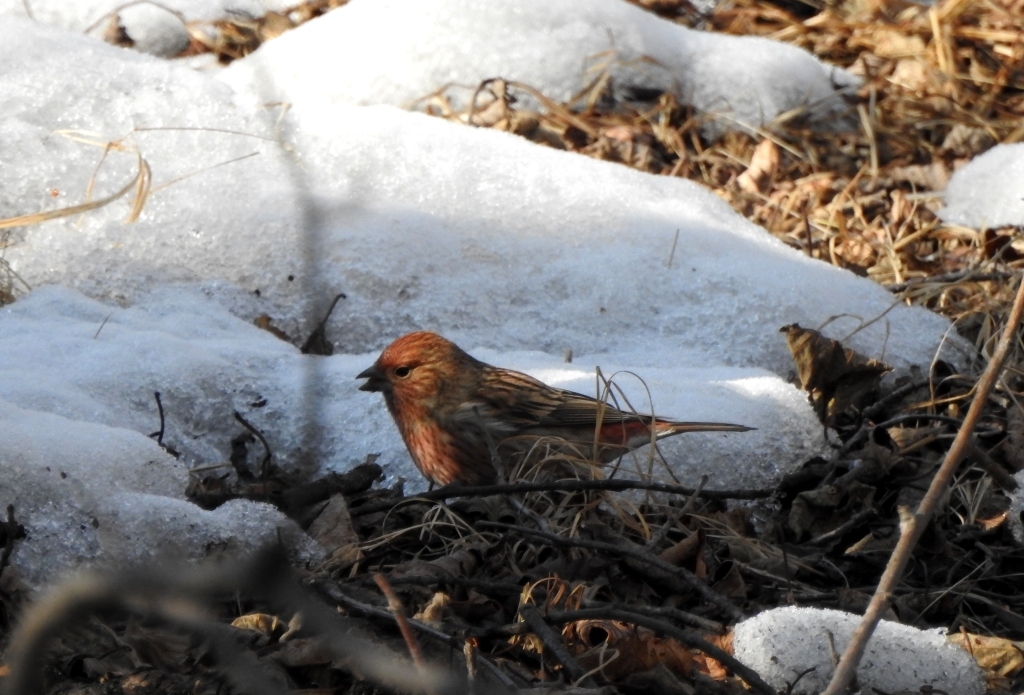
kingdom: Animalia
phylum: Chordata
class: Aves
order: Passeriformes
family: Fringillidae
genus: Carpodacus
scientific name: Carpodacus roseus
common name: Pallas's rosefinch
